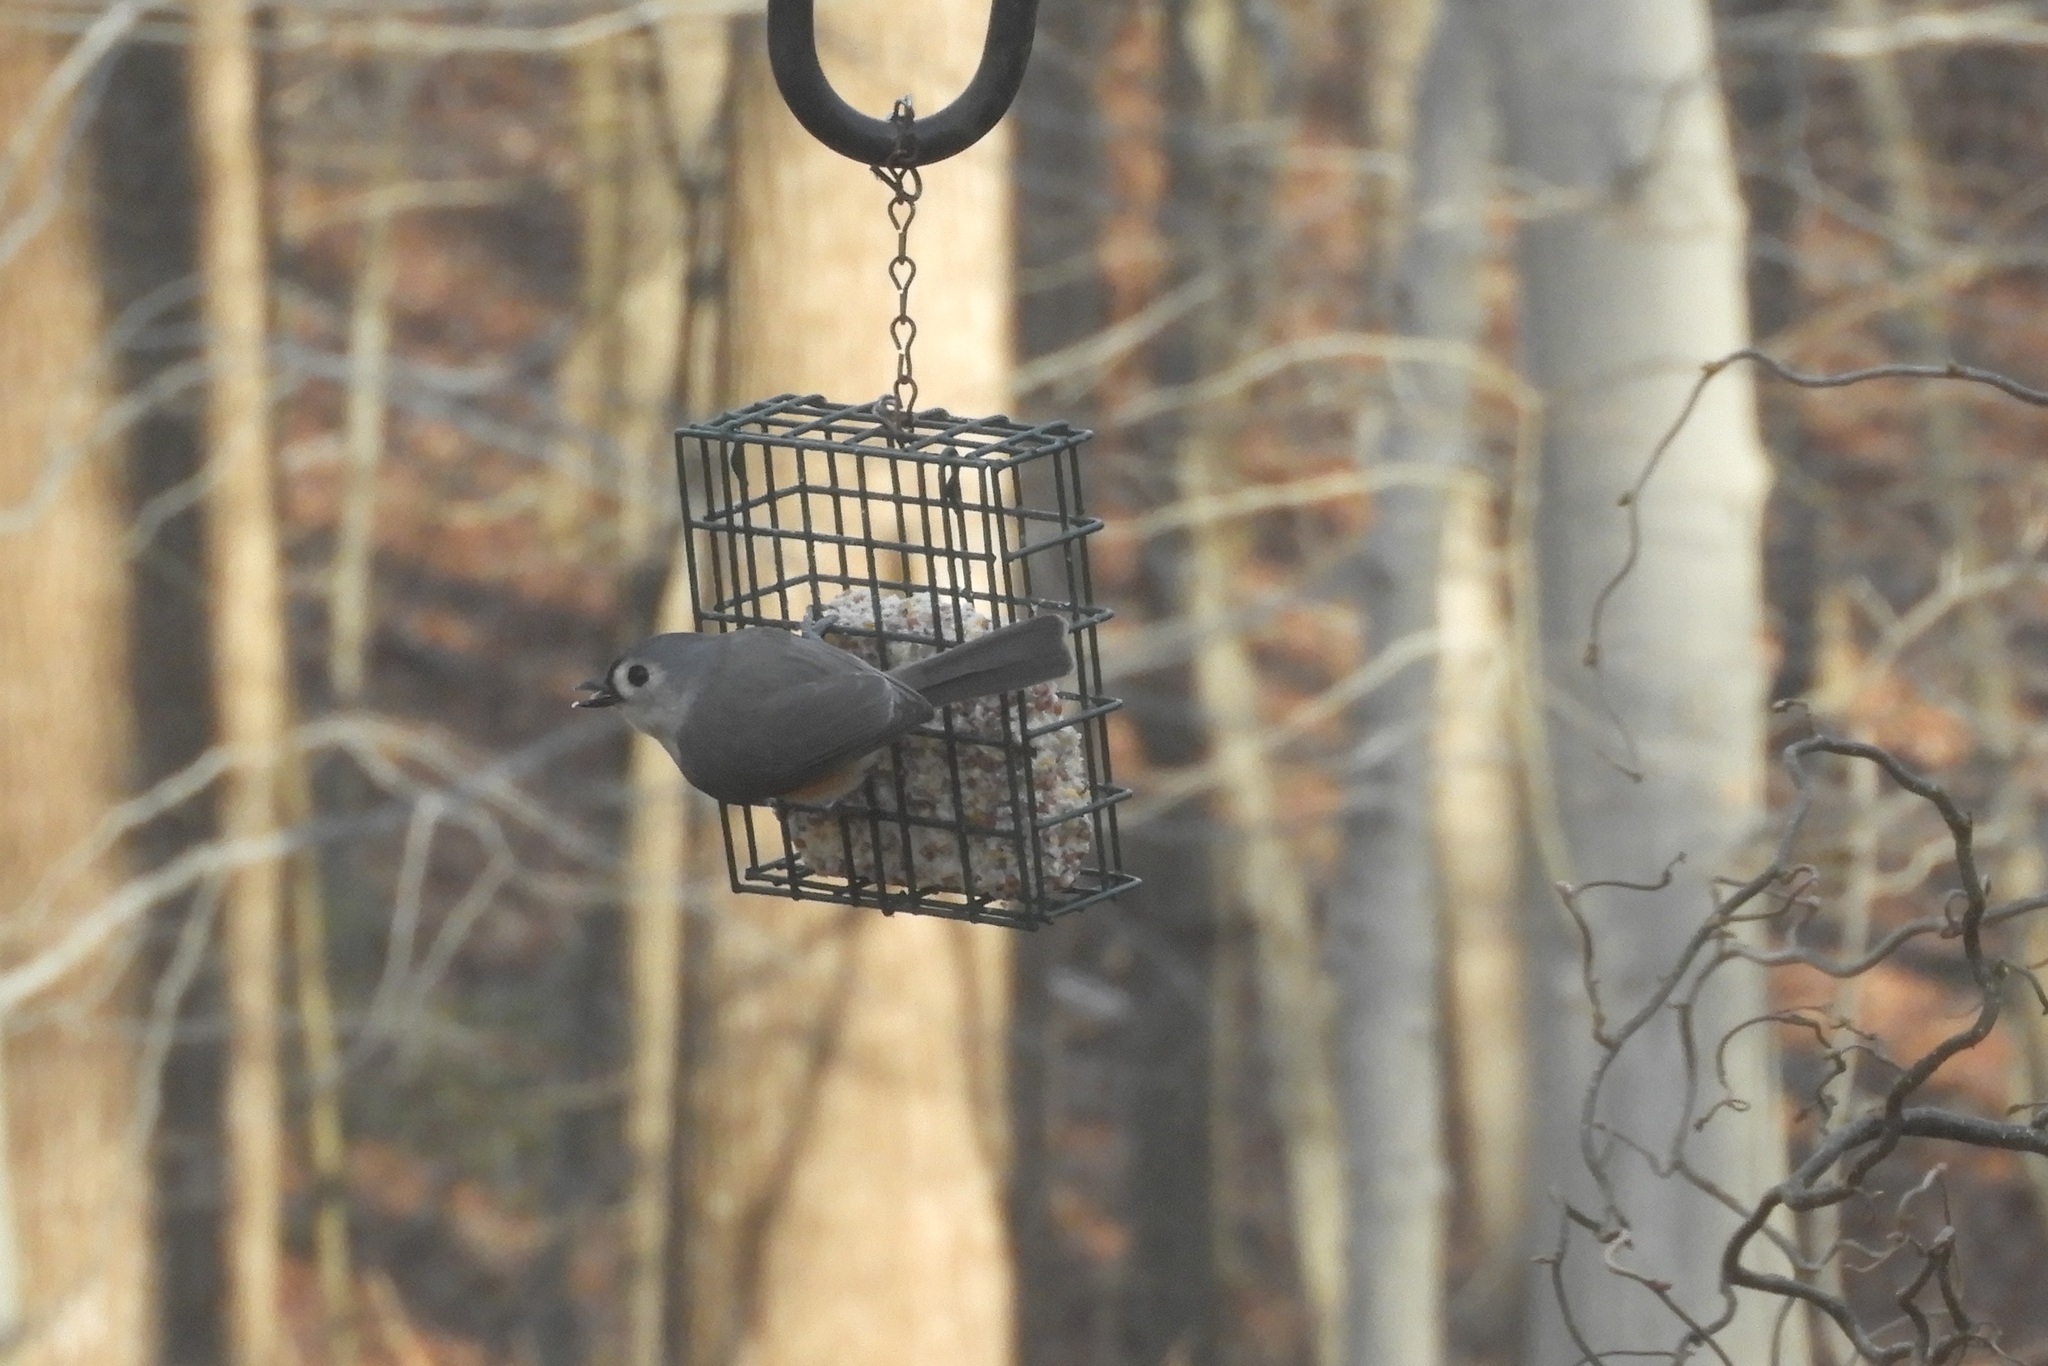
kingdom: Animalia
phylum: Chordata
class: Aves
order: Passeriformes
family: Paridae
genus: Baeolophus
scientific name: Baeolophus bicolor
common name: Tufted titmouse
